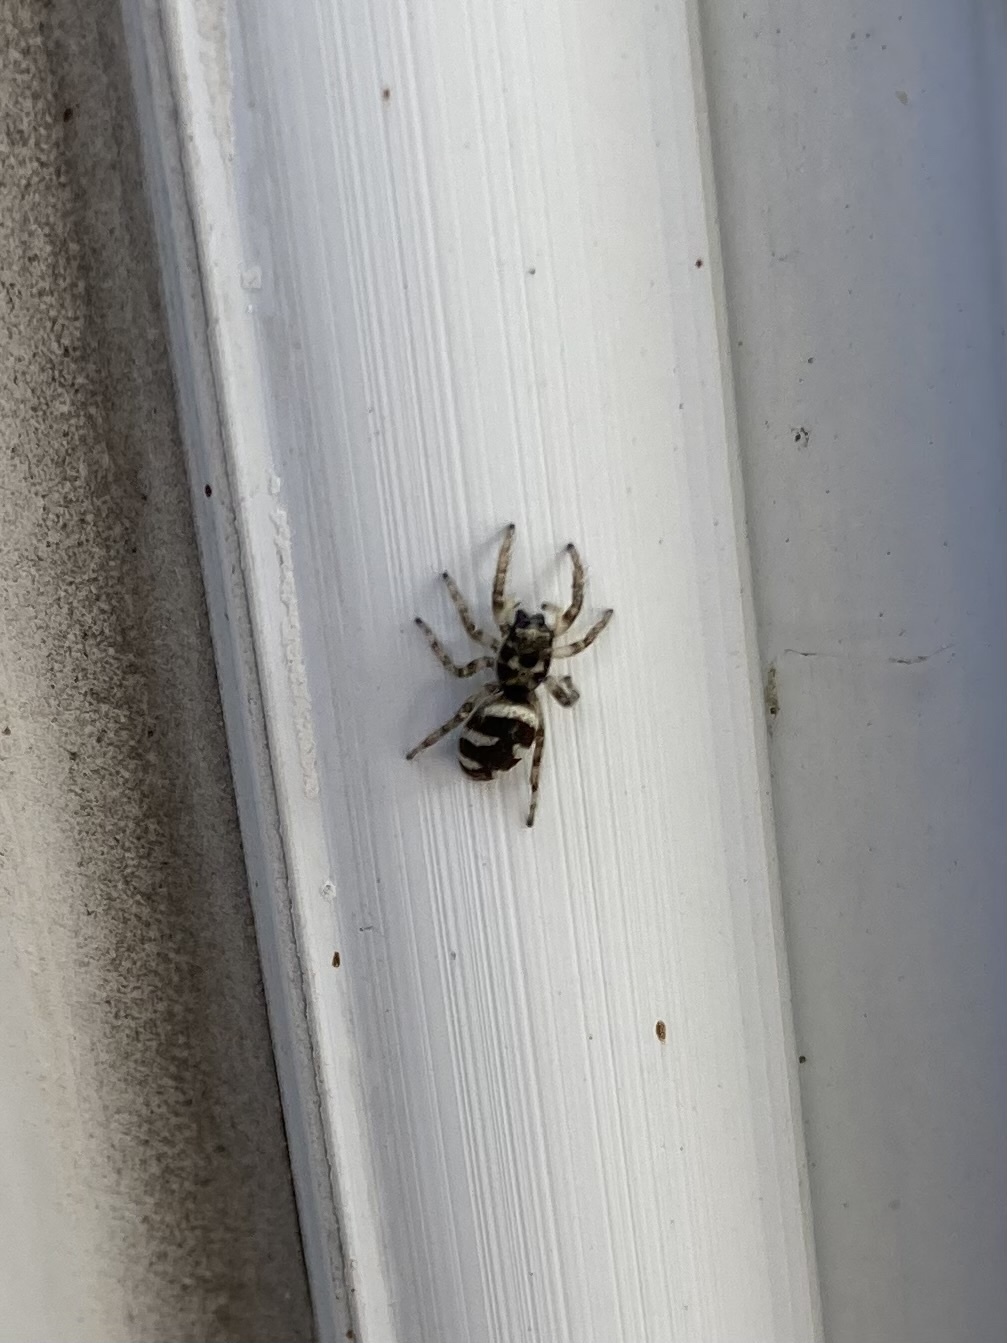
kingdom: Animalia
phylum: Arthropoda
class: Arachnida
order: Araneae
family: Salticidae
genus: Salticus
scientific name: Salticus scenicus
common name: Zebra jumper
